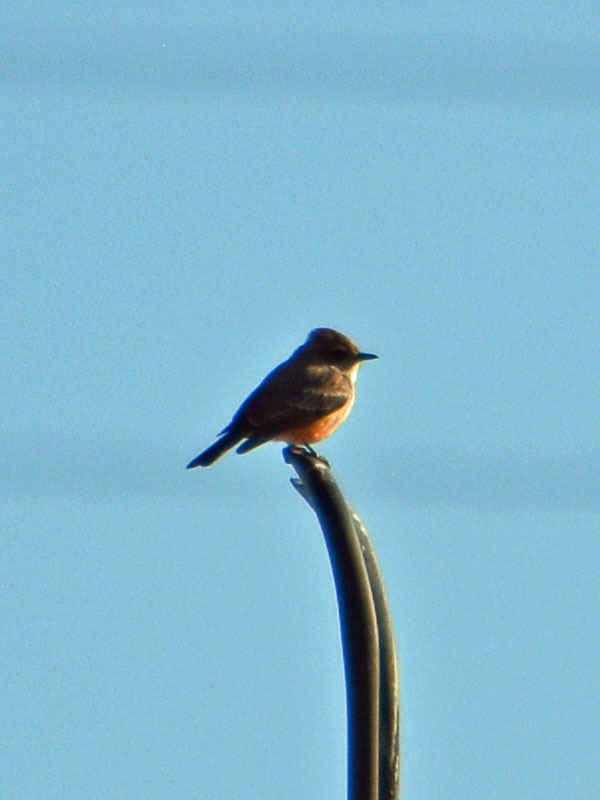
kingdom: Animalia
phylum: Chordata
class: Aves
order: Passeriformes
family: Tyrannidae
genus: Pyrocephalus
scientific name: Pyrocephalus rubinus
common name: Vermilion flycatcher
